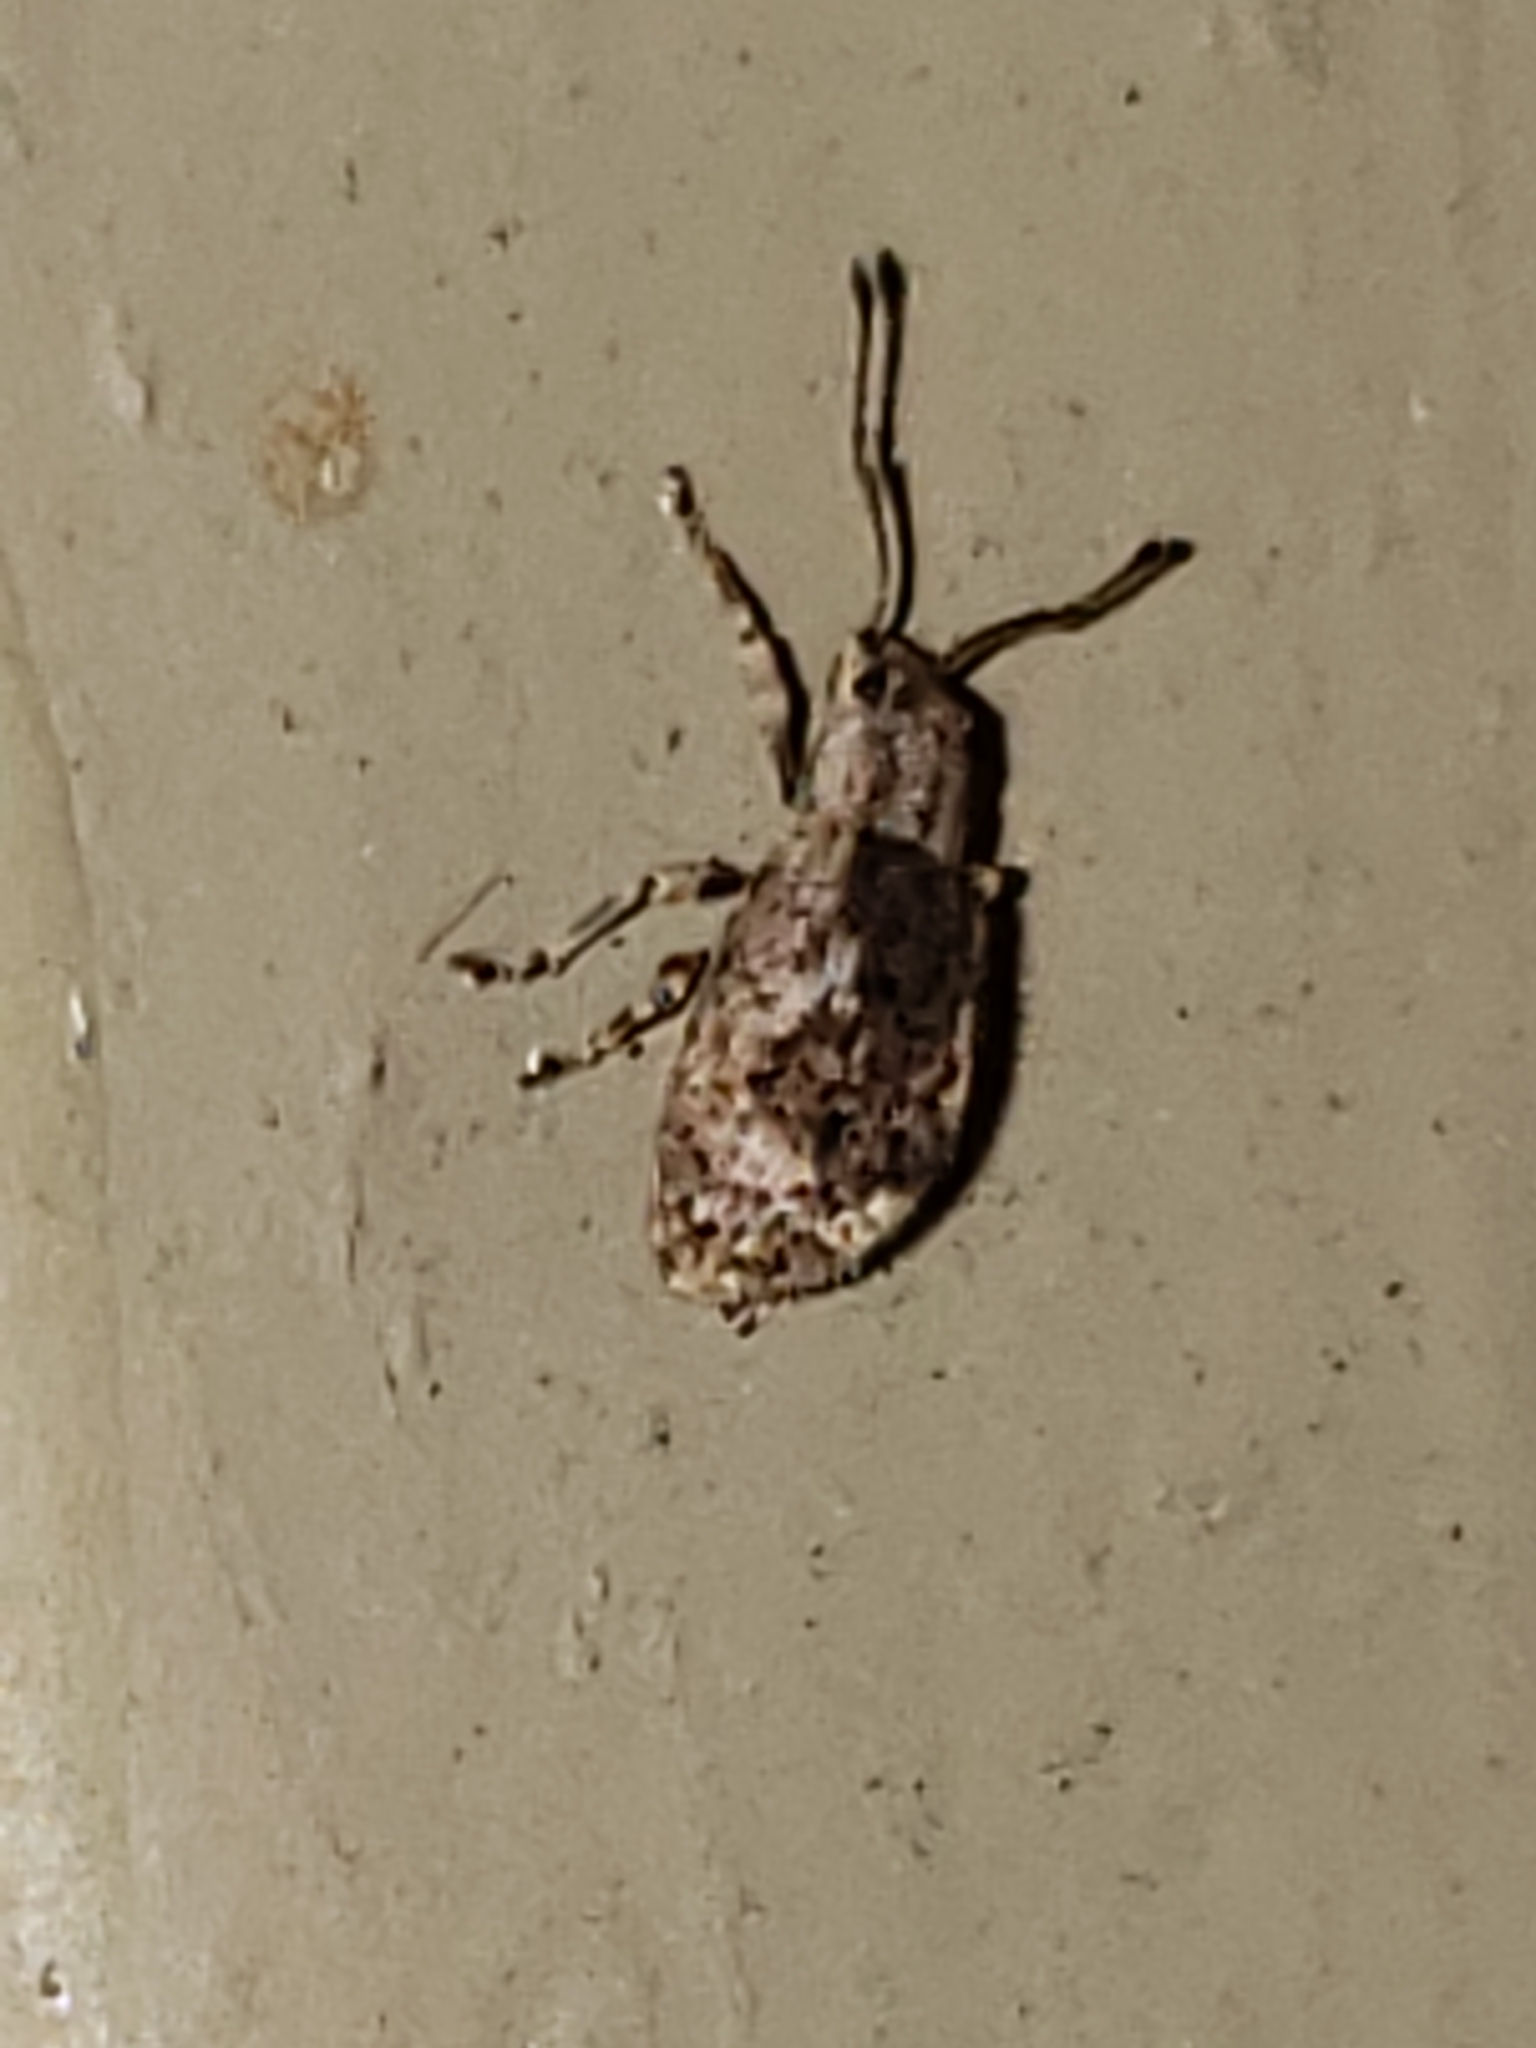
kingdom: Animalia
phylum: Arthropoda
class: Insecta
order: Coleoptera
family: Curculionidae
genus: Pseudoedophrys
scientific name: Pseudoedophrys hilleri
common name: Weevil
